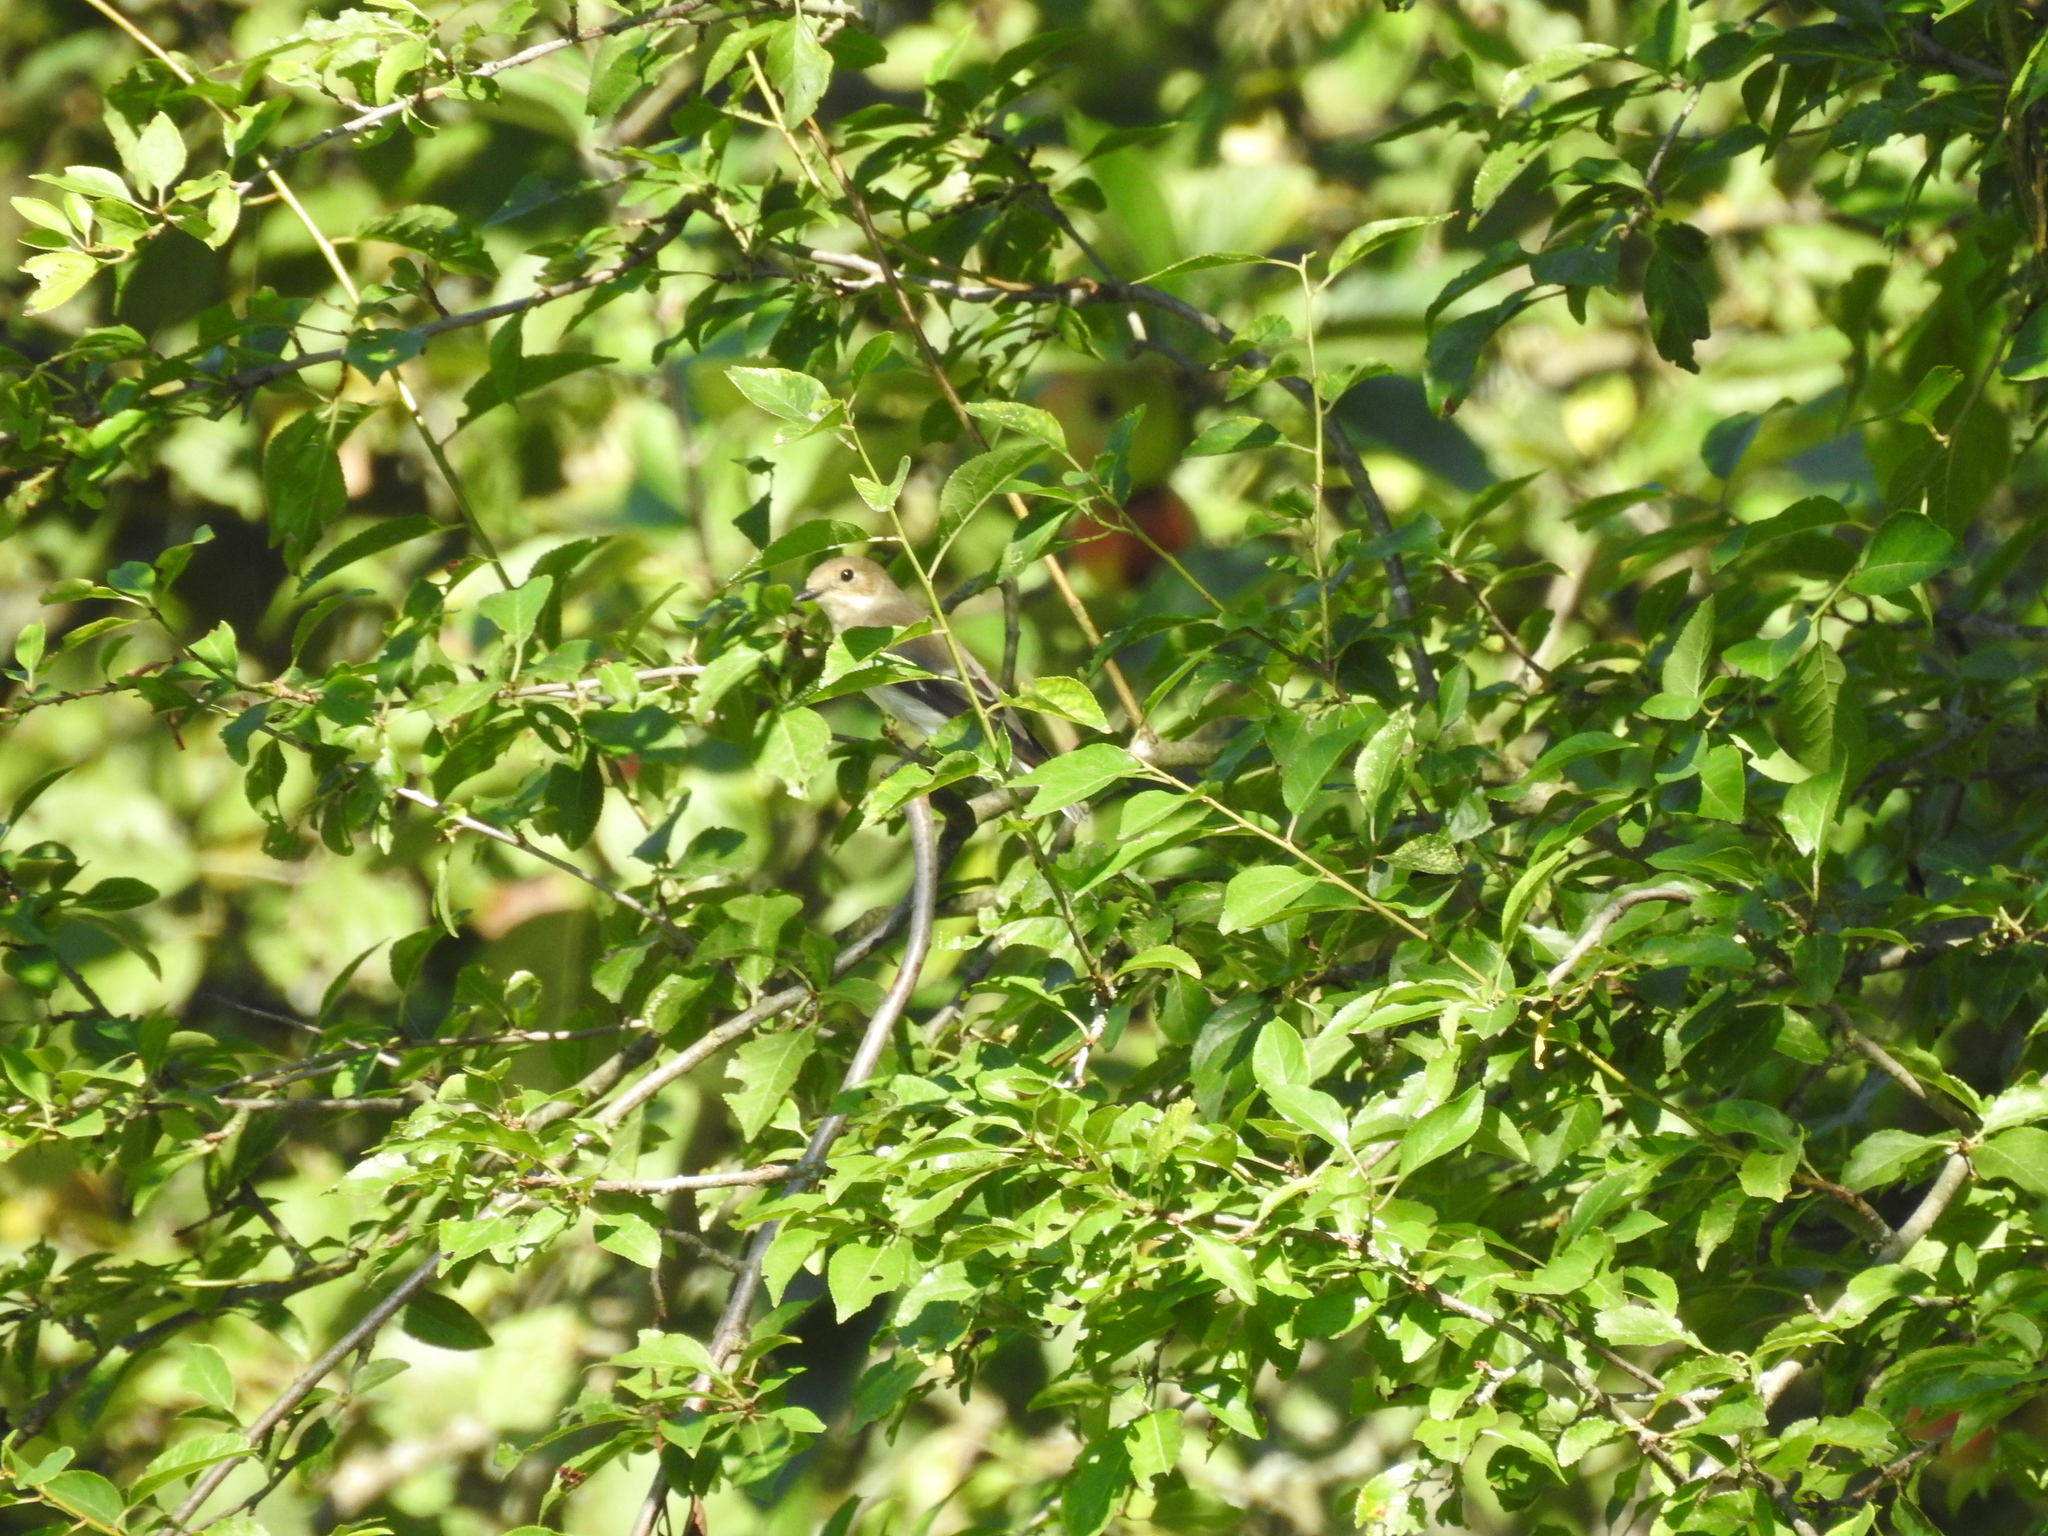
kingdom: Animalia
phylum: Chordata
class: Aves
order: Passeriformes
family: Muscicapidae
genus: Ficedula
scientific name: Ficedula hypoleuca
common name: European pied flycatcher
